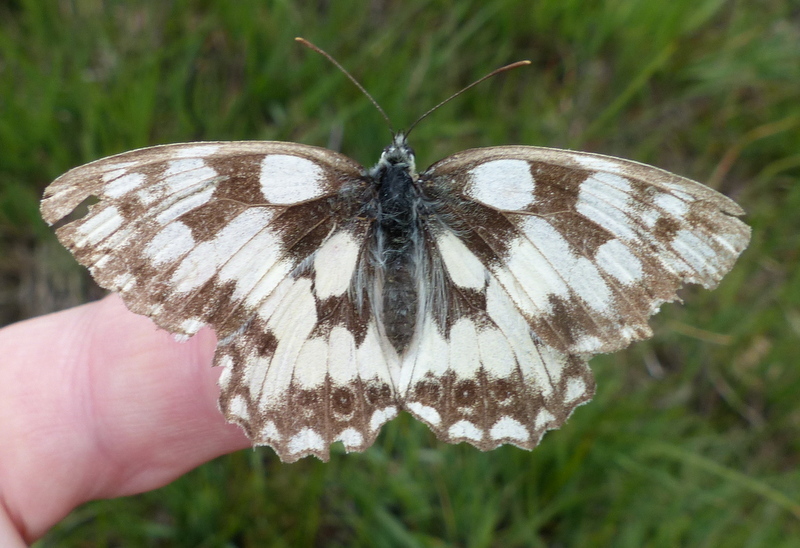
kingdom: Animalia
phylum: Arthropoda
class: Insecta
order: Lepidoptera
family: Nymphalidae
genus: Melanargia
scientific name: Melanargia galathea
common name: Marbled white
